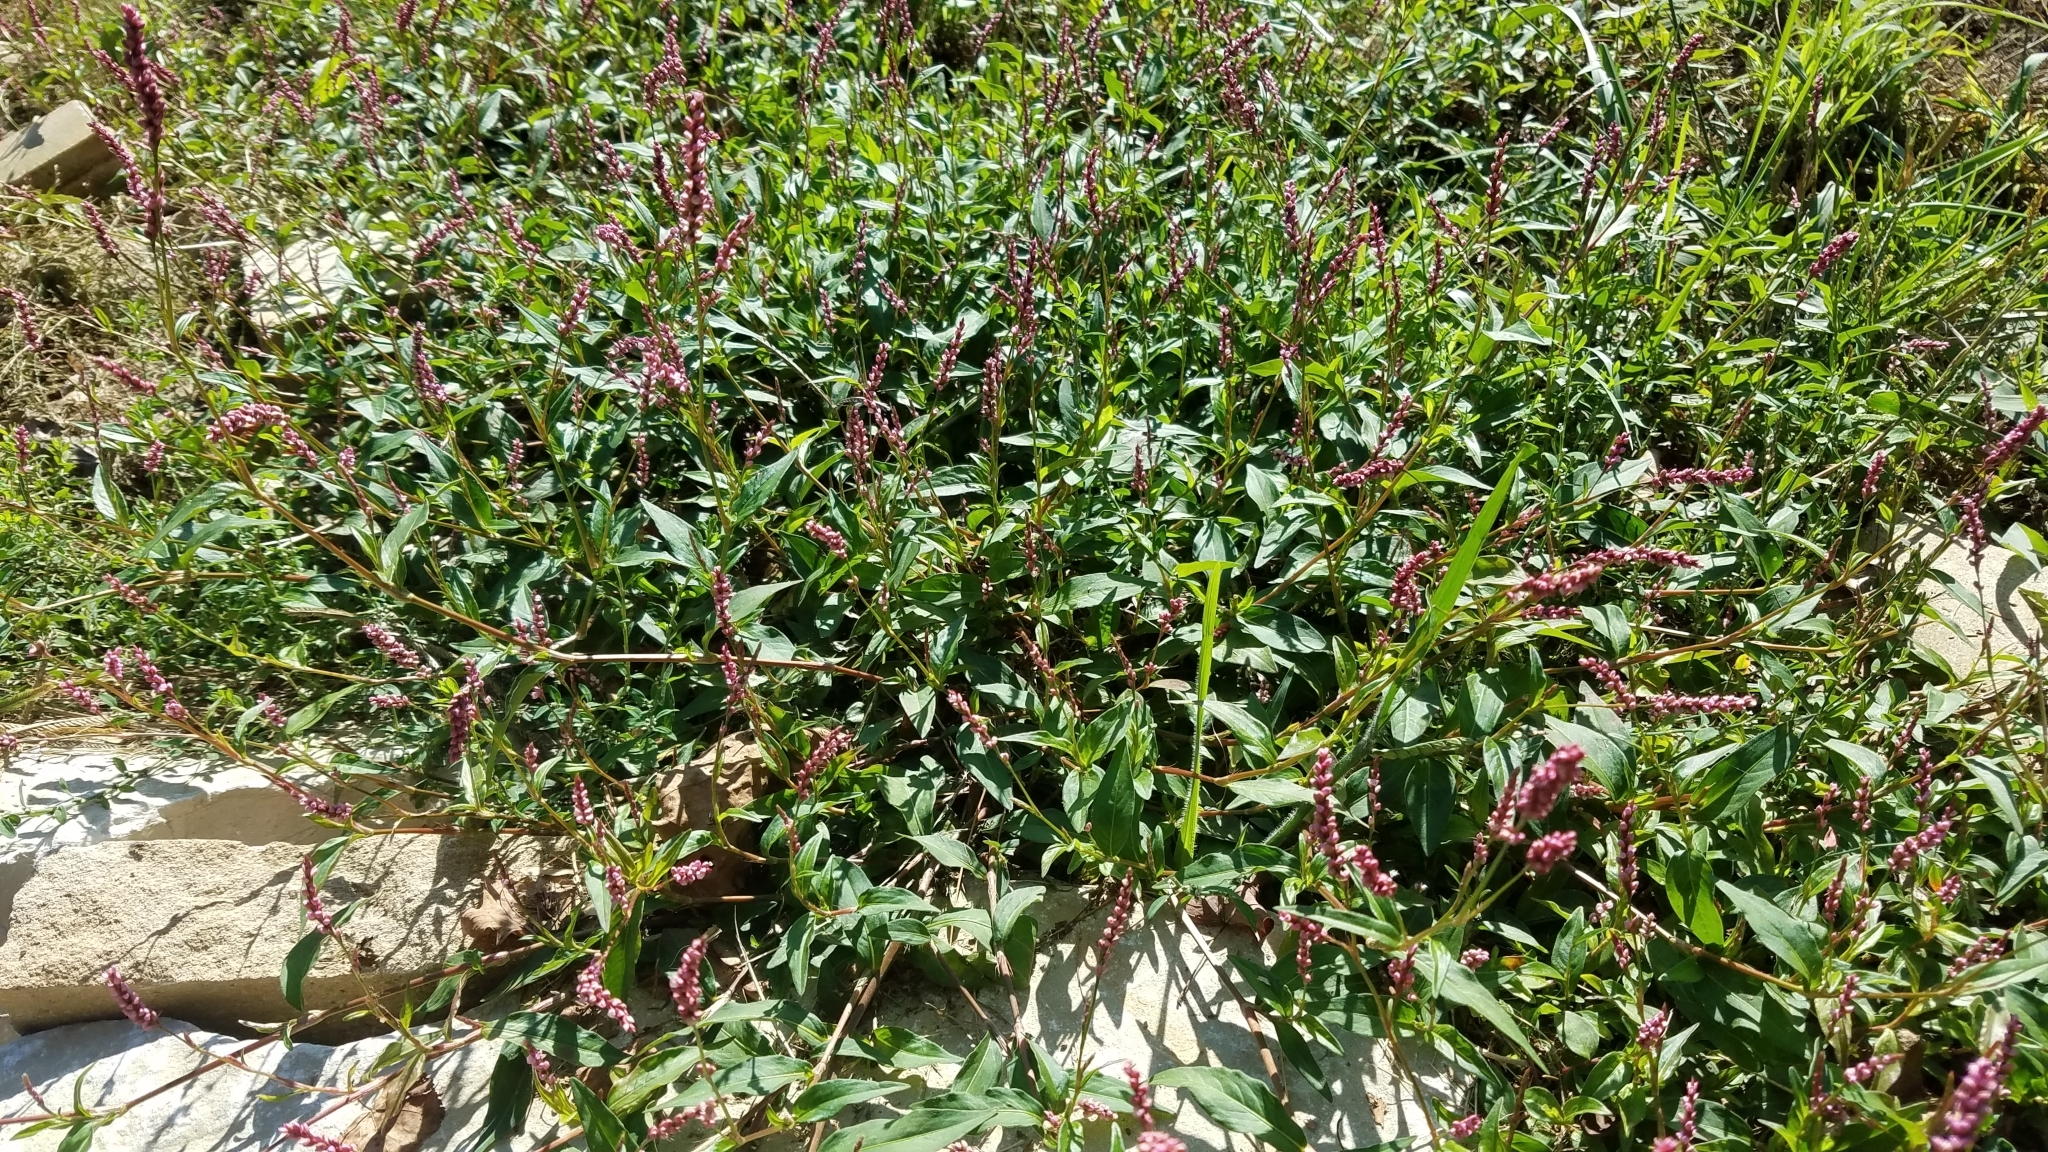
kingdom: Plantae
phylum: Tracheophyta
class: Magnoliopsida
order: Caryophyllales
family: Polygonaceae
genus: Persicaria
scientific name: Persicaria longiseta
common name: Bristly lady's-thumb
